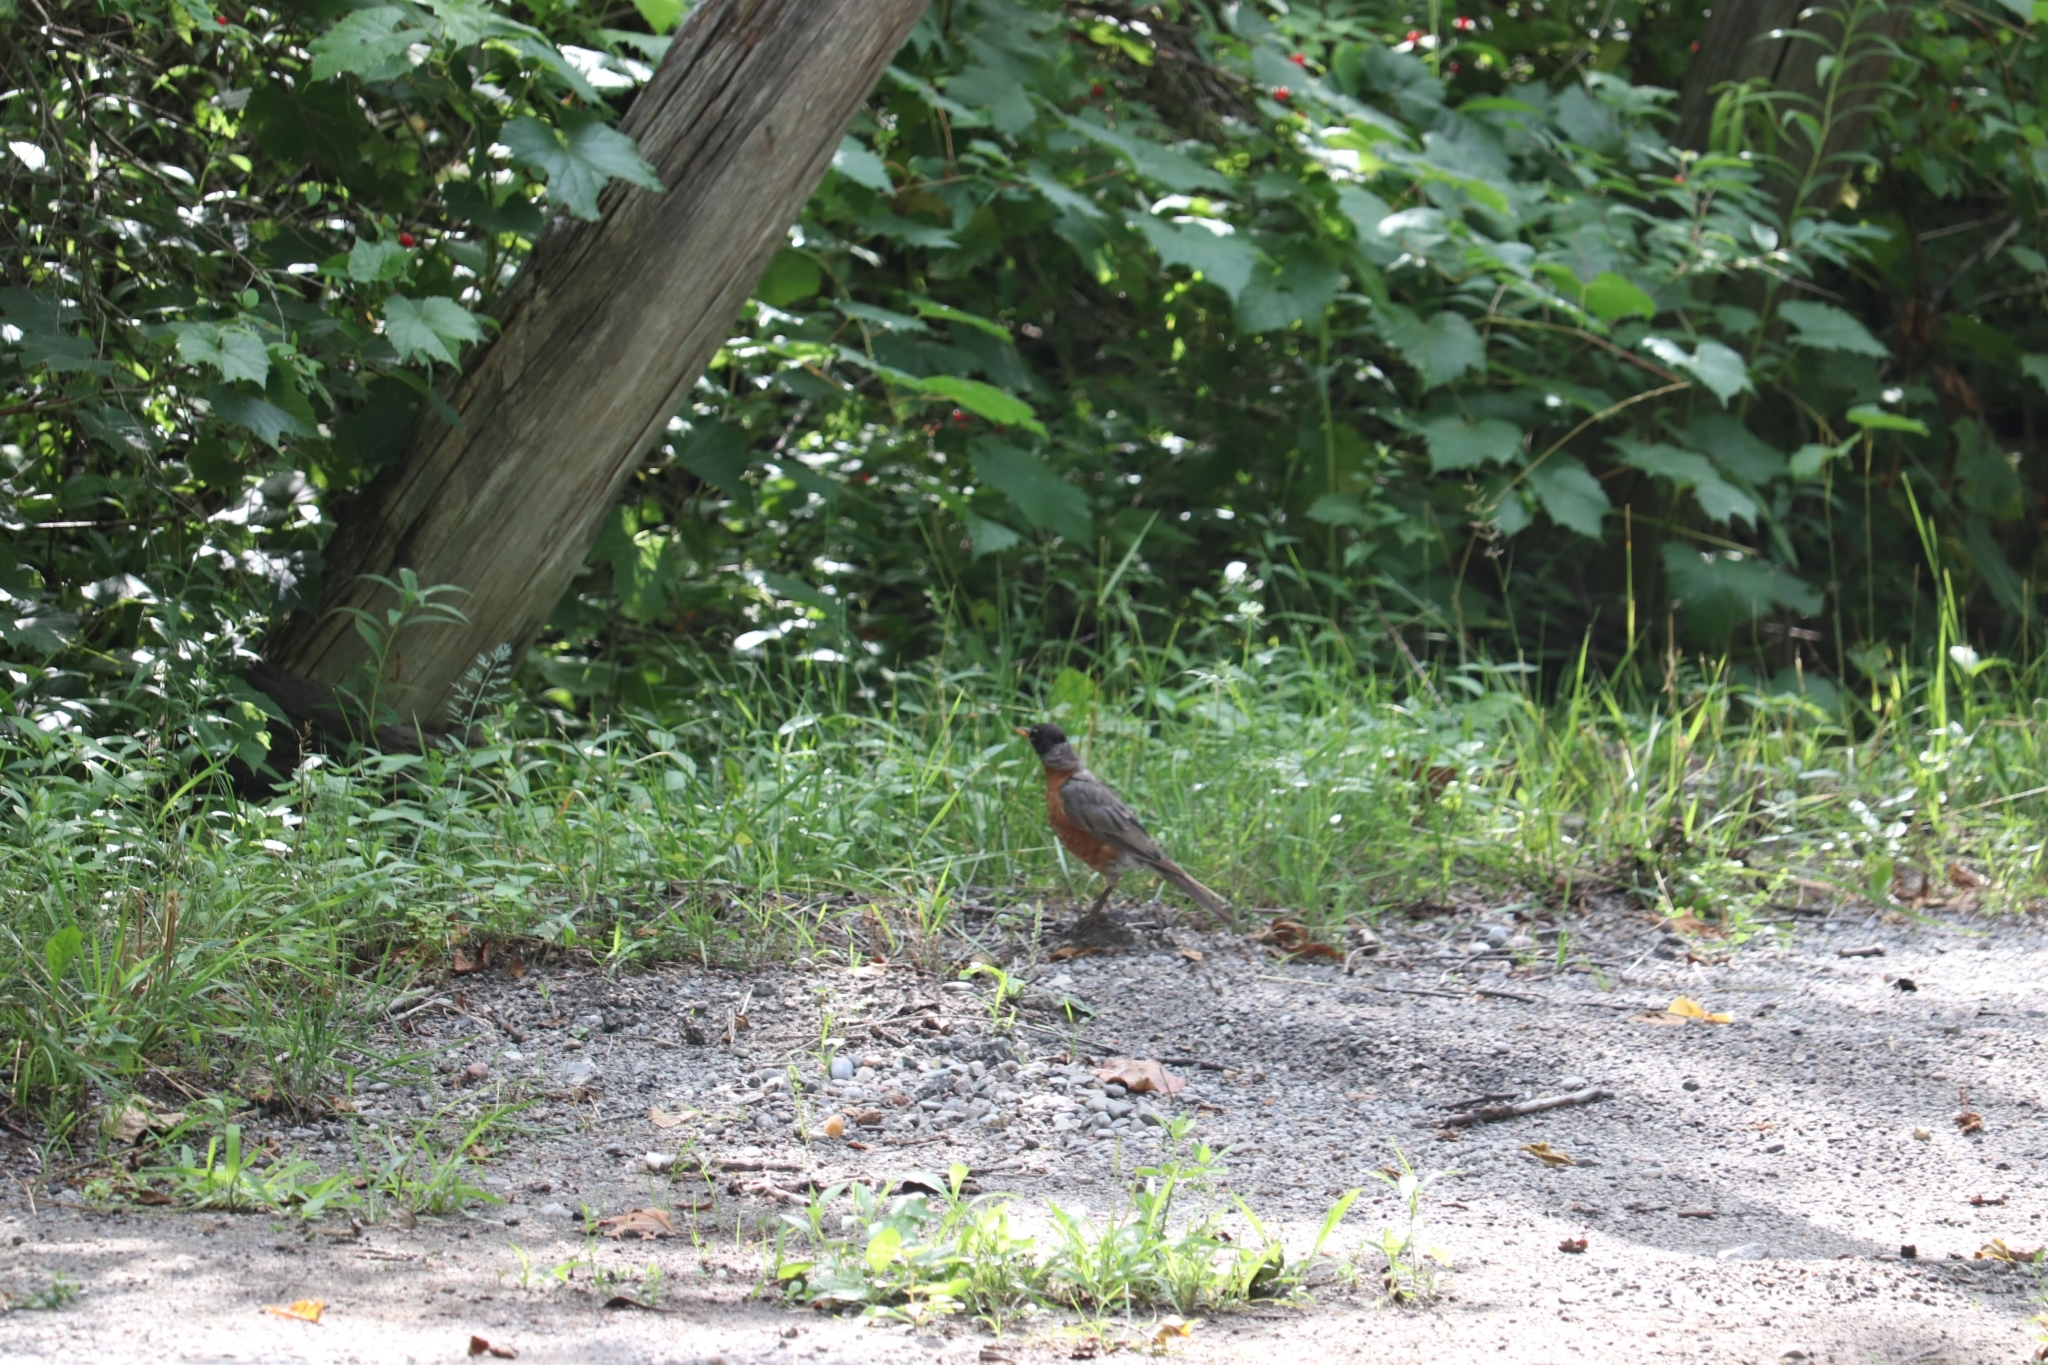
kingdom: Animalia
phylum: Chordata
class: Aves
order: Passeriformes
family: Turdidae
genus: Turdus
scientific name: Turdus migratorius
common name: American robin
